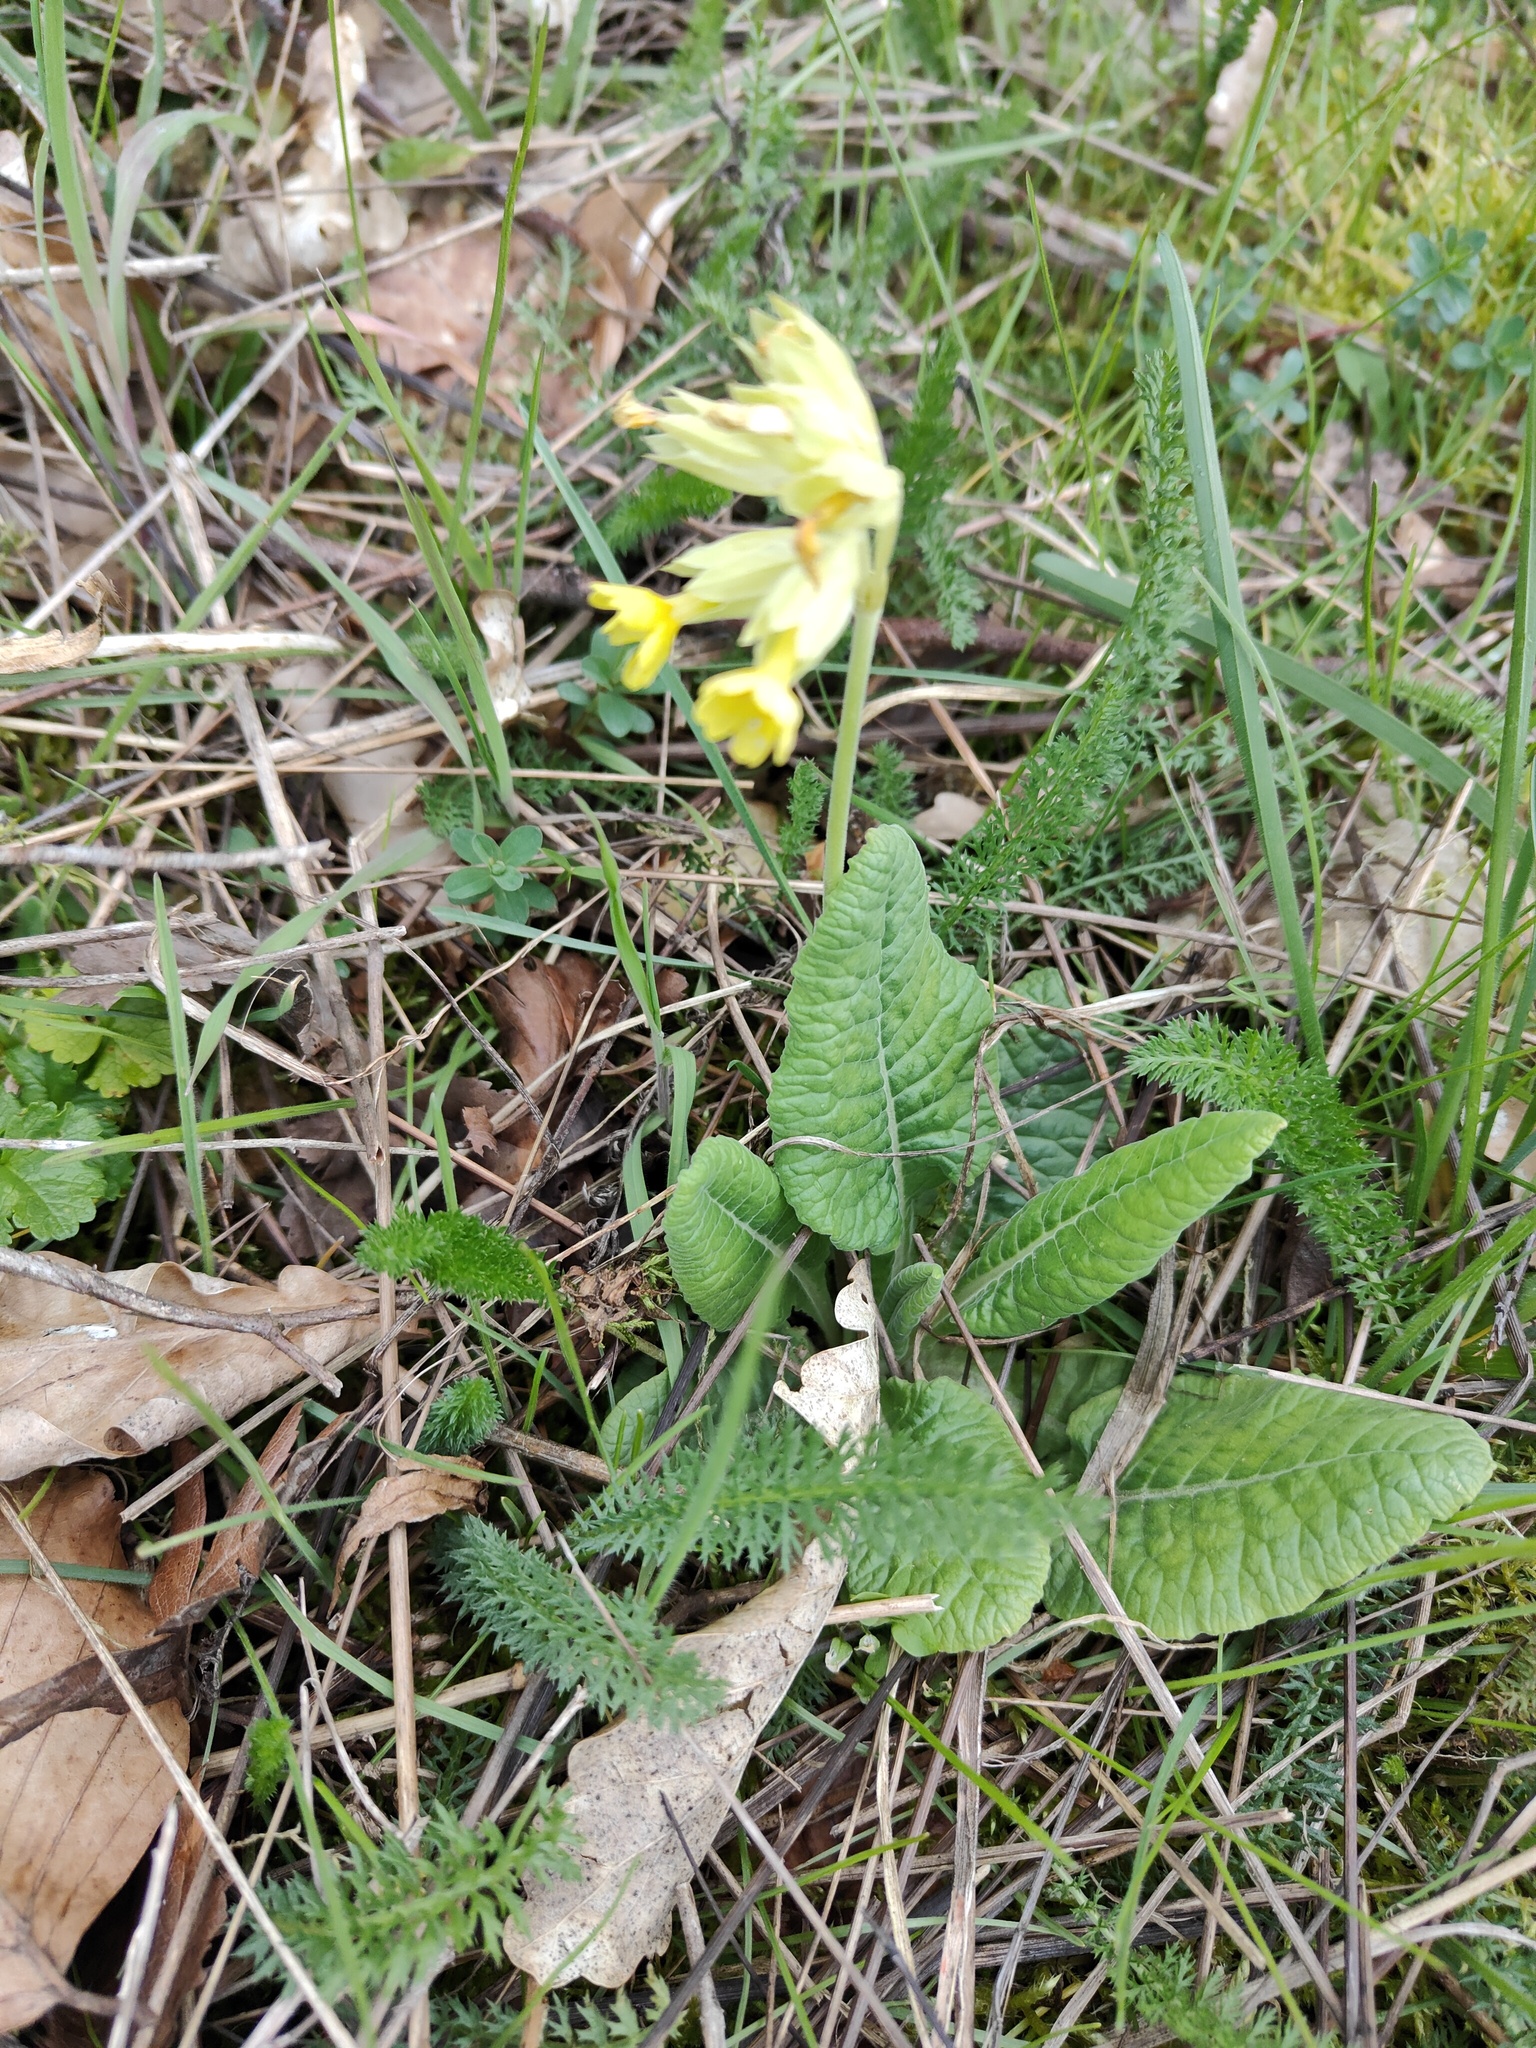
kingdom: Plantae
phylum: Tracheophyta
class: Magnoliopsida
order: Ericales
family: Primulaceae
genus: Primula
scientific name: Primula veris
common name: Cowslip
